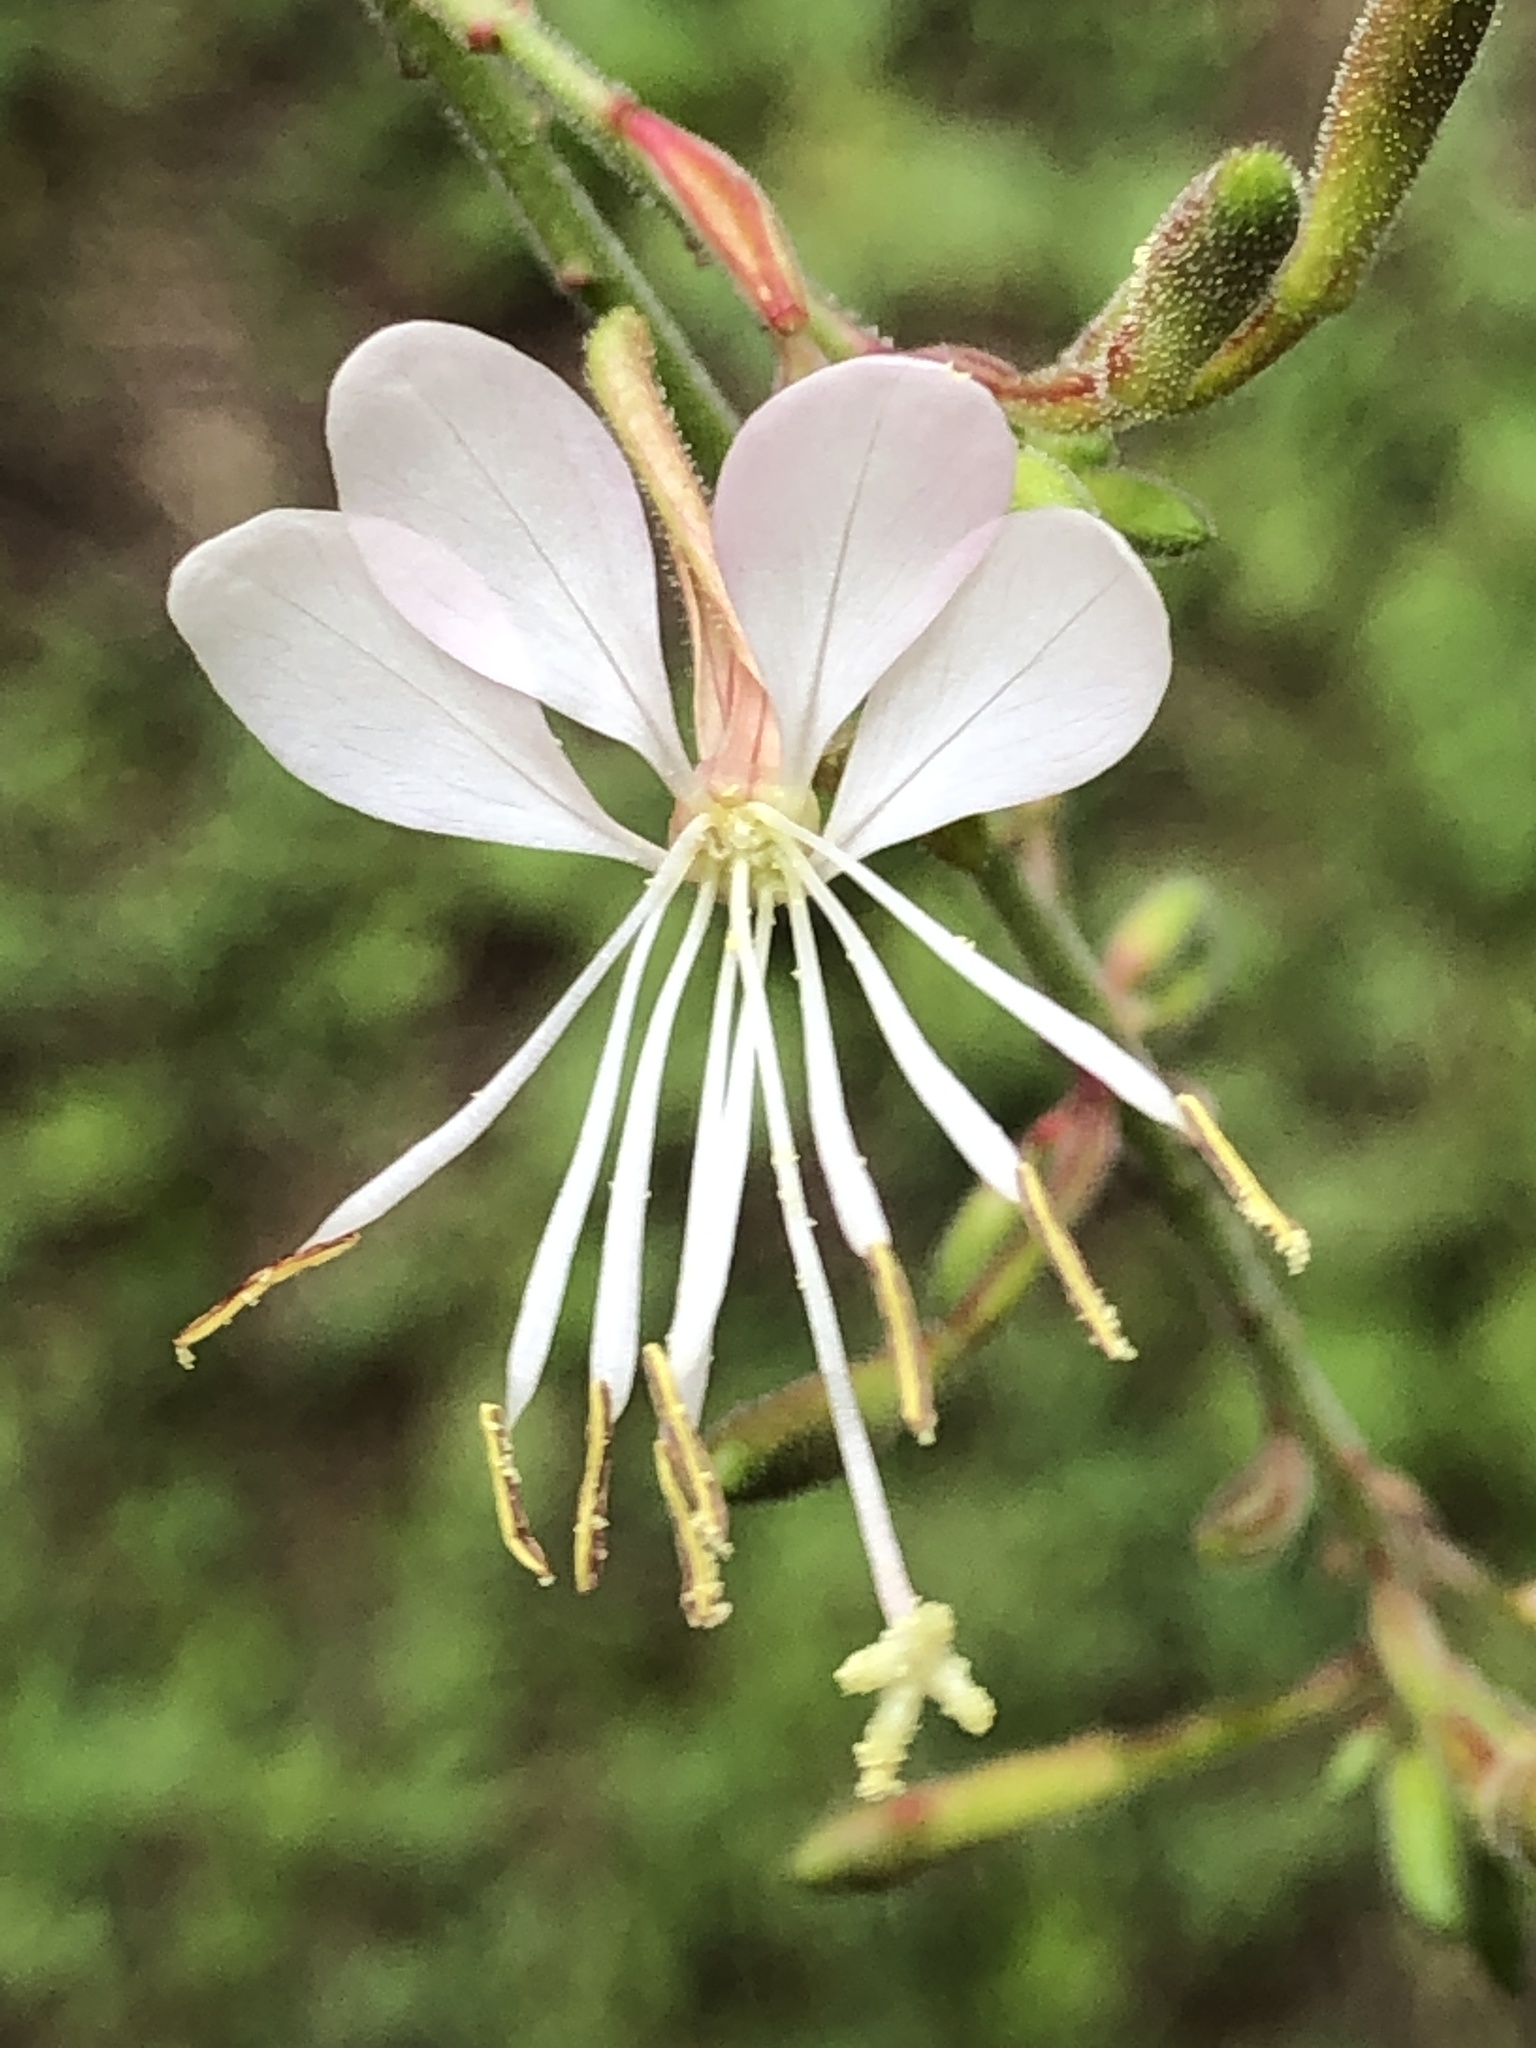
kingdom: Plantae
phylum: Tracheophyta
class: Magnoliopsida
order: Myrtales
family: Onagraceae
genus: Oenothera
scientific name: Oenothera gaura
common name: Biennial beeblossom
